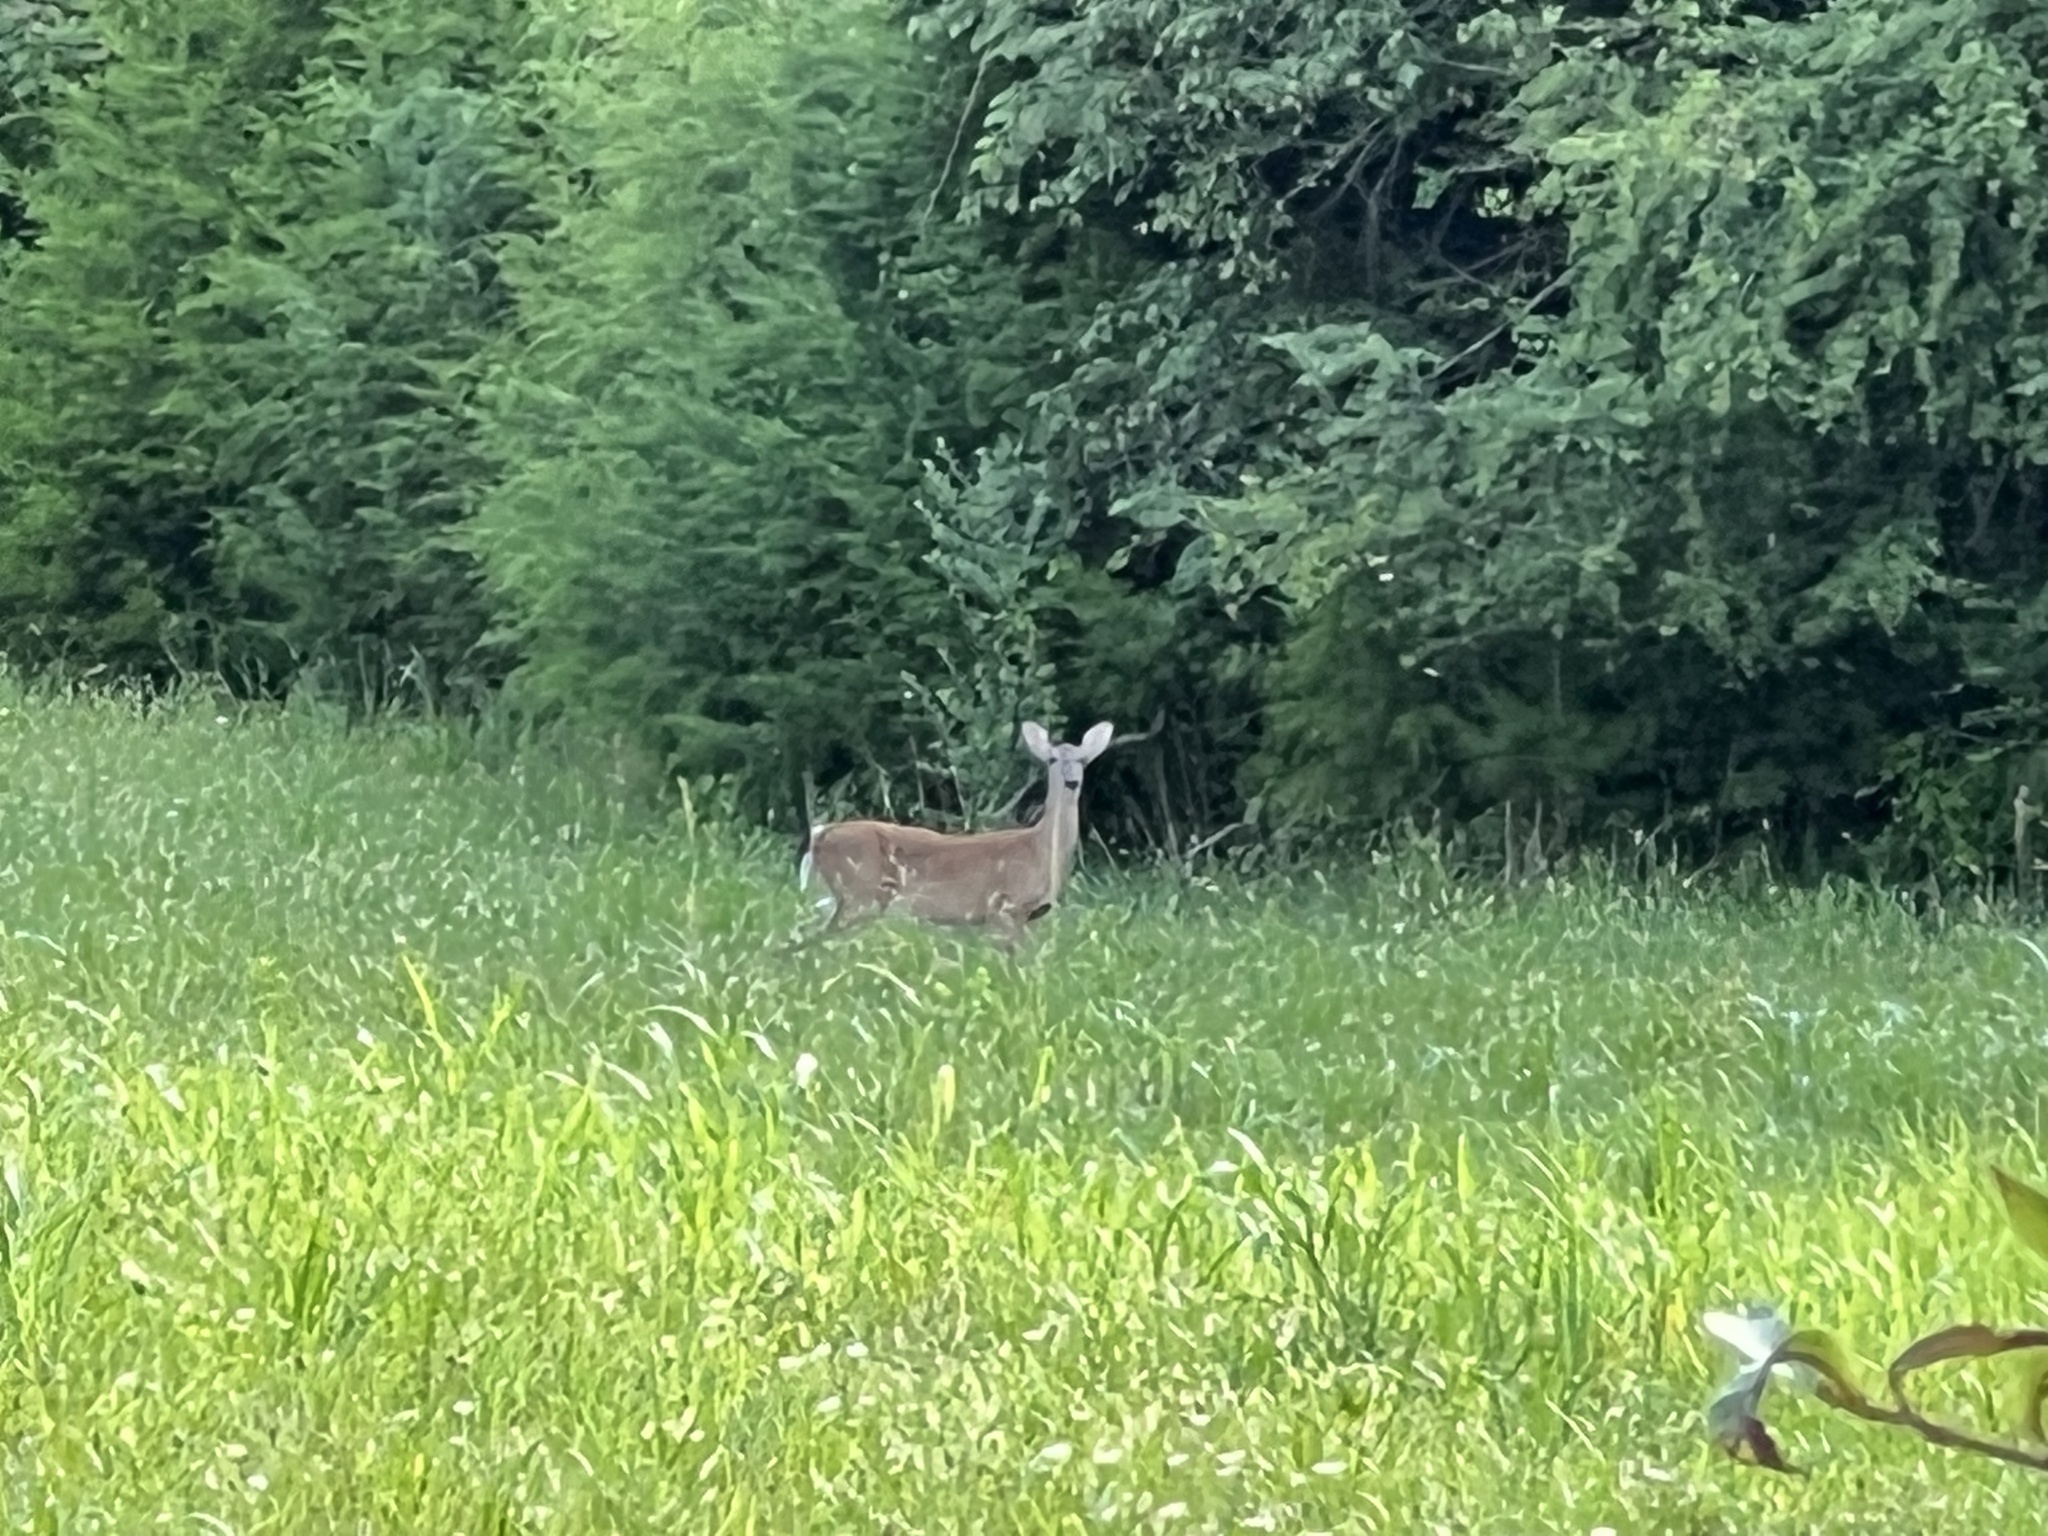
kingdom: Animalia
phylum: Chordata
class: Mammalia
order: Artiodactyla
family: Cervidae
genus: Odocoileus
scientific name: Odocoileus virginianus
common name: White-tailed deer
